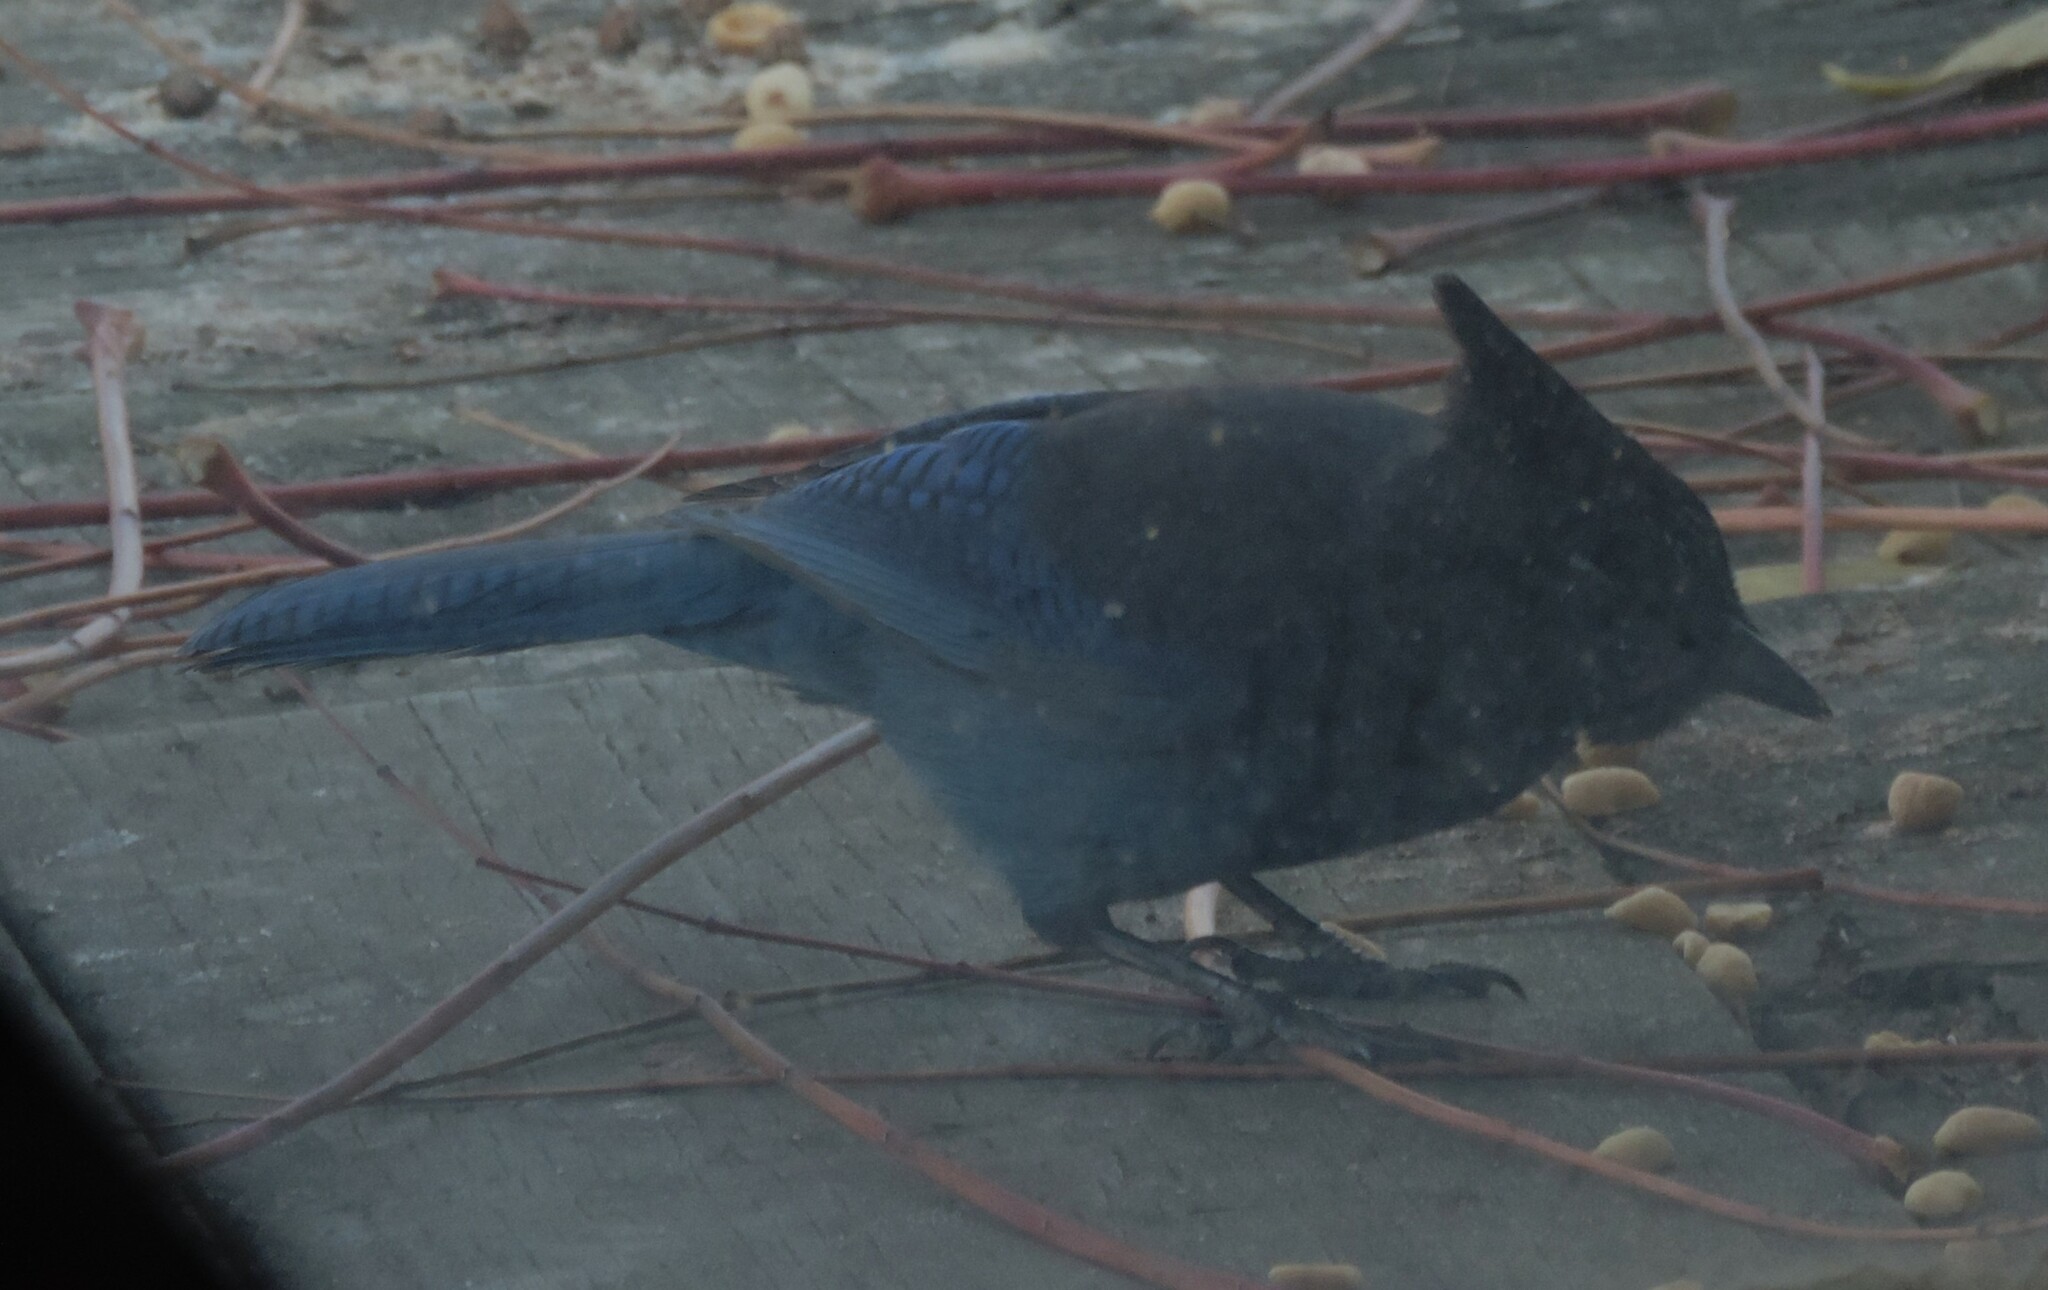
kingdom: Animalia
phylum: Chordata
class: Aves
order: Passeriformes
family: Corvidae
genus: Cyanocitta
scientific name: Cyanocitta stelleri
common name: Steller's jay
